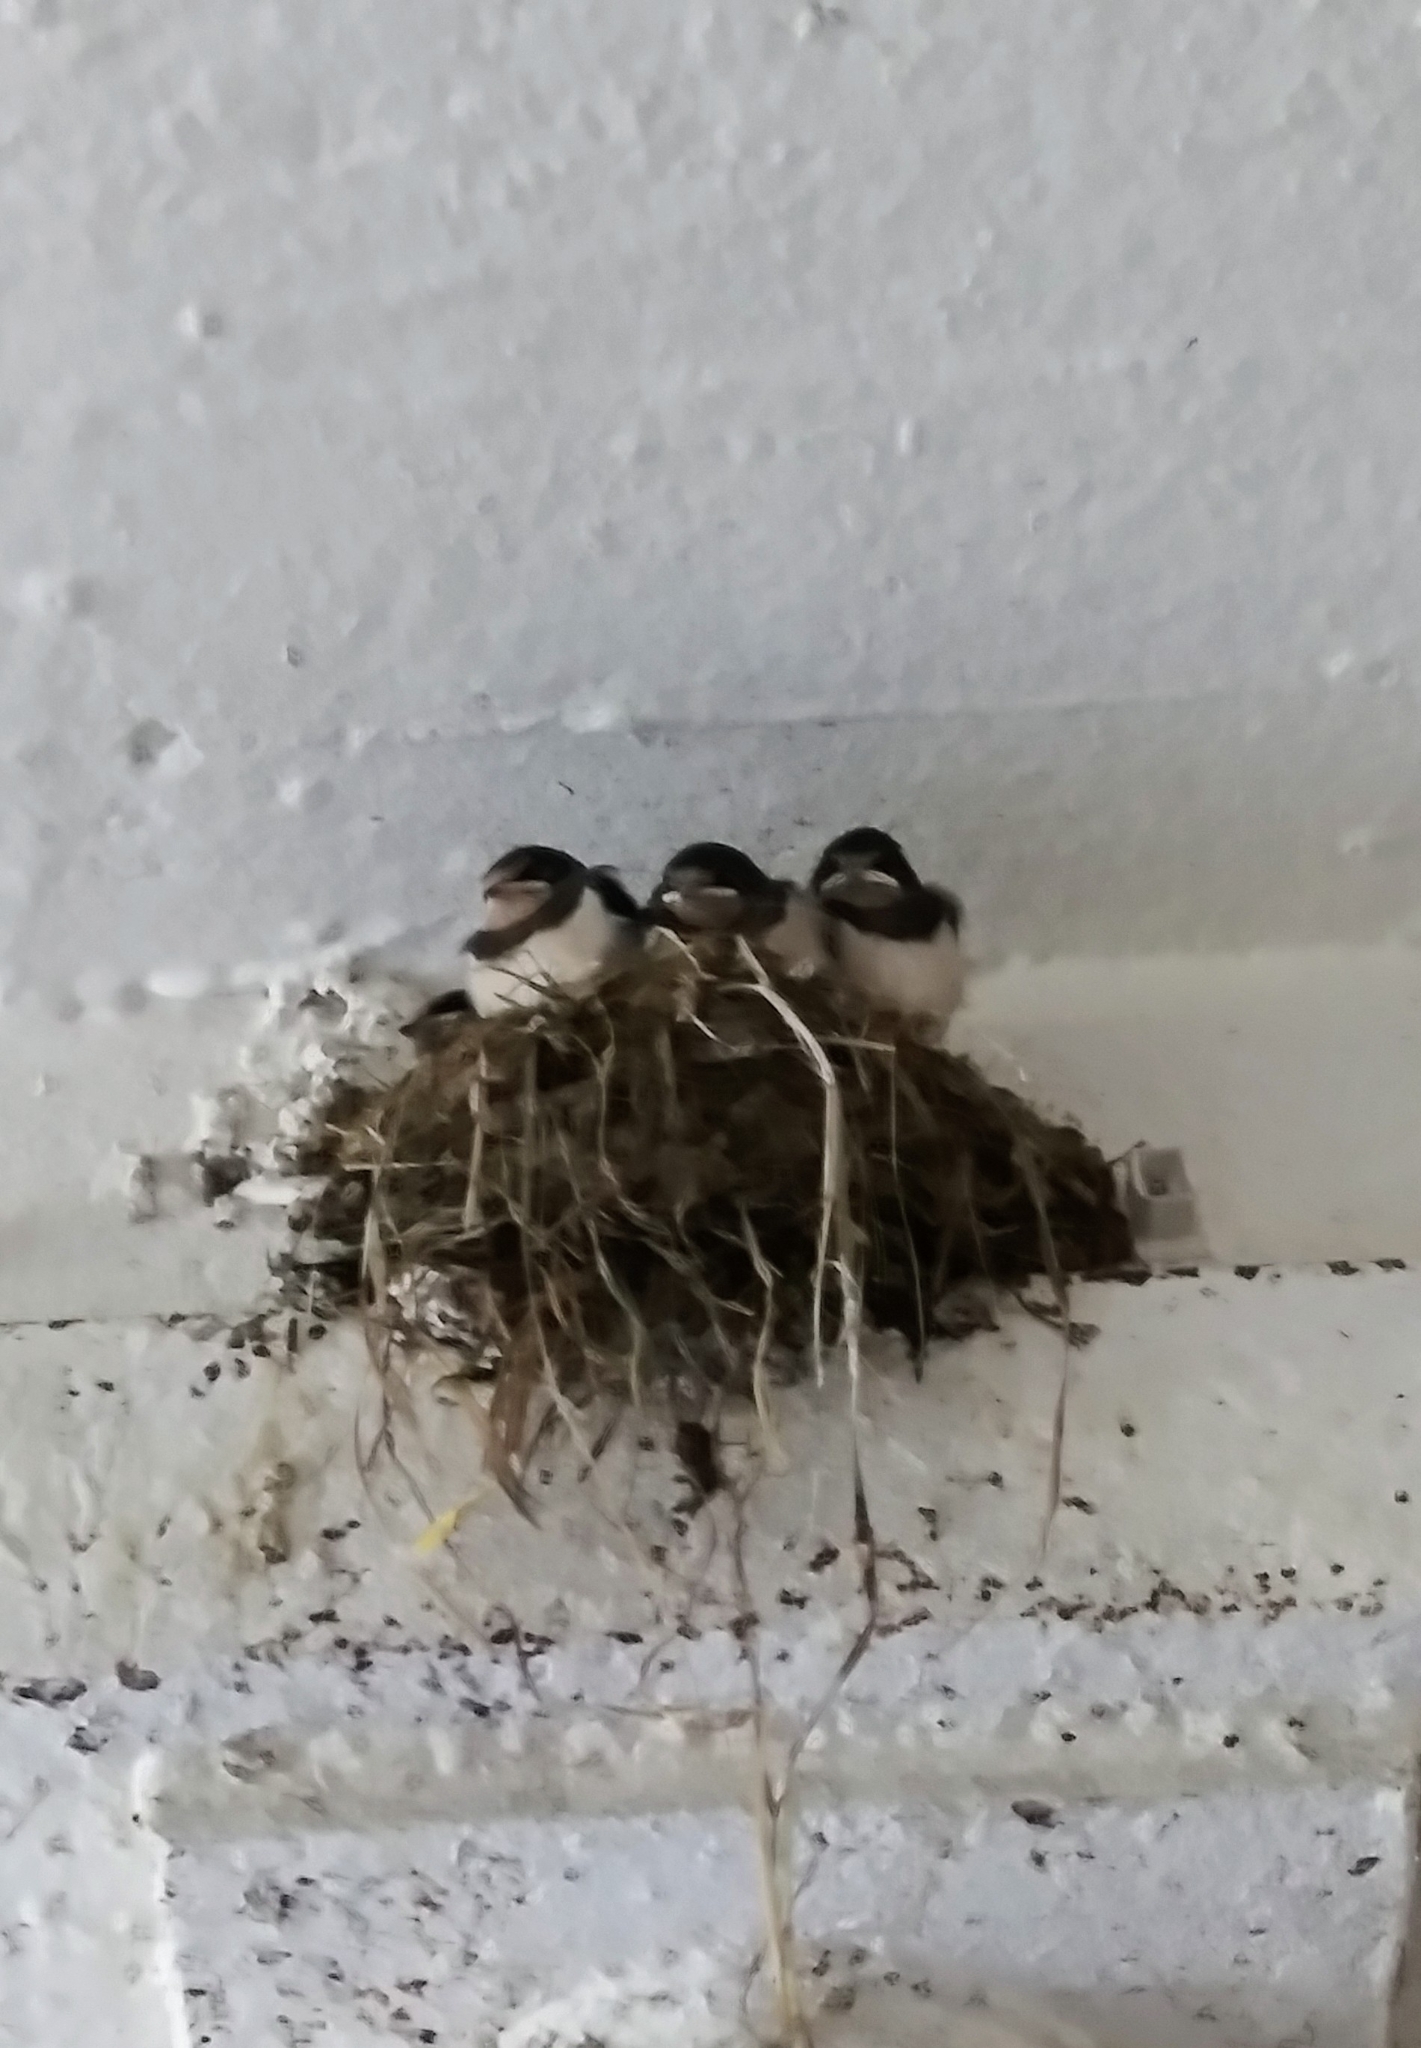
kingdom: Animalia
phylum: Chordata
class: Aves
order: Passeriformes
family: Hirundinidae
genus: Hirundo
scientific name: Hirundo rustica
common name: Barn swallow
